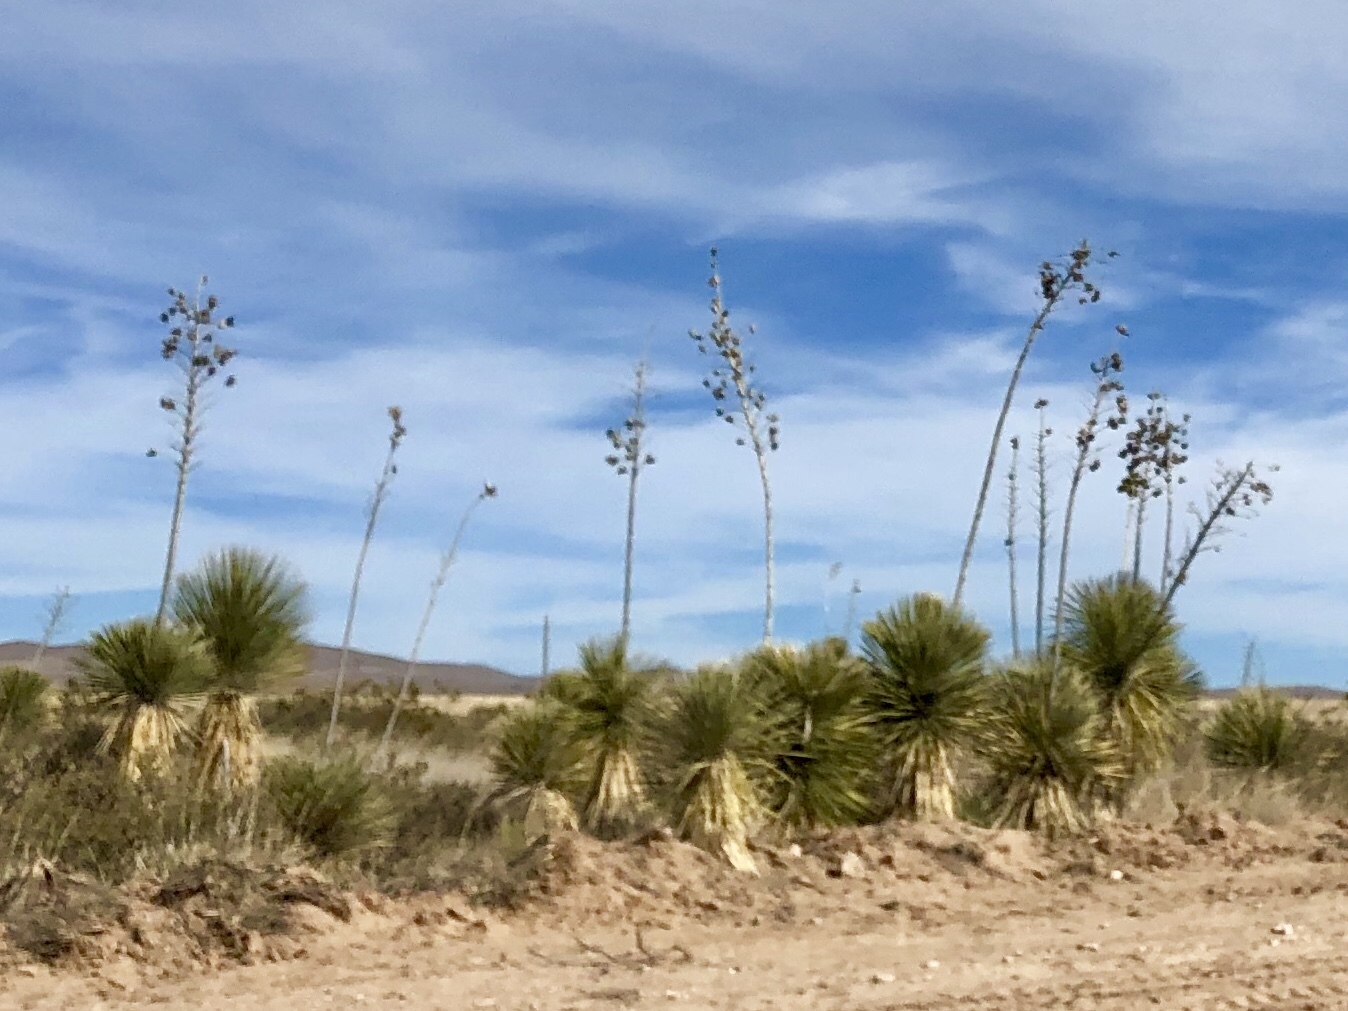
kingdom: Plantae
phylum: Tracheophyta
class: Liliopsida
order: Asparagales
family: Asparagaceae
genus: Yucca
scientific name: Yucca elata
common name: Palmella
